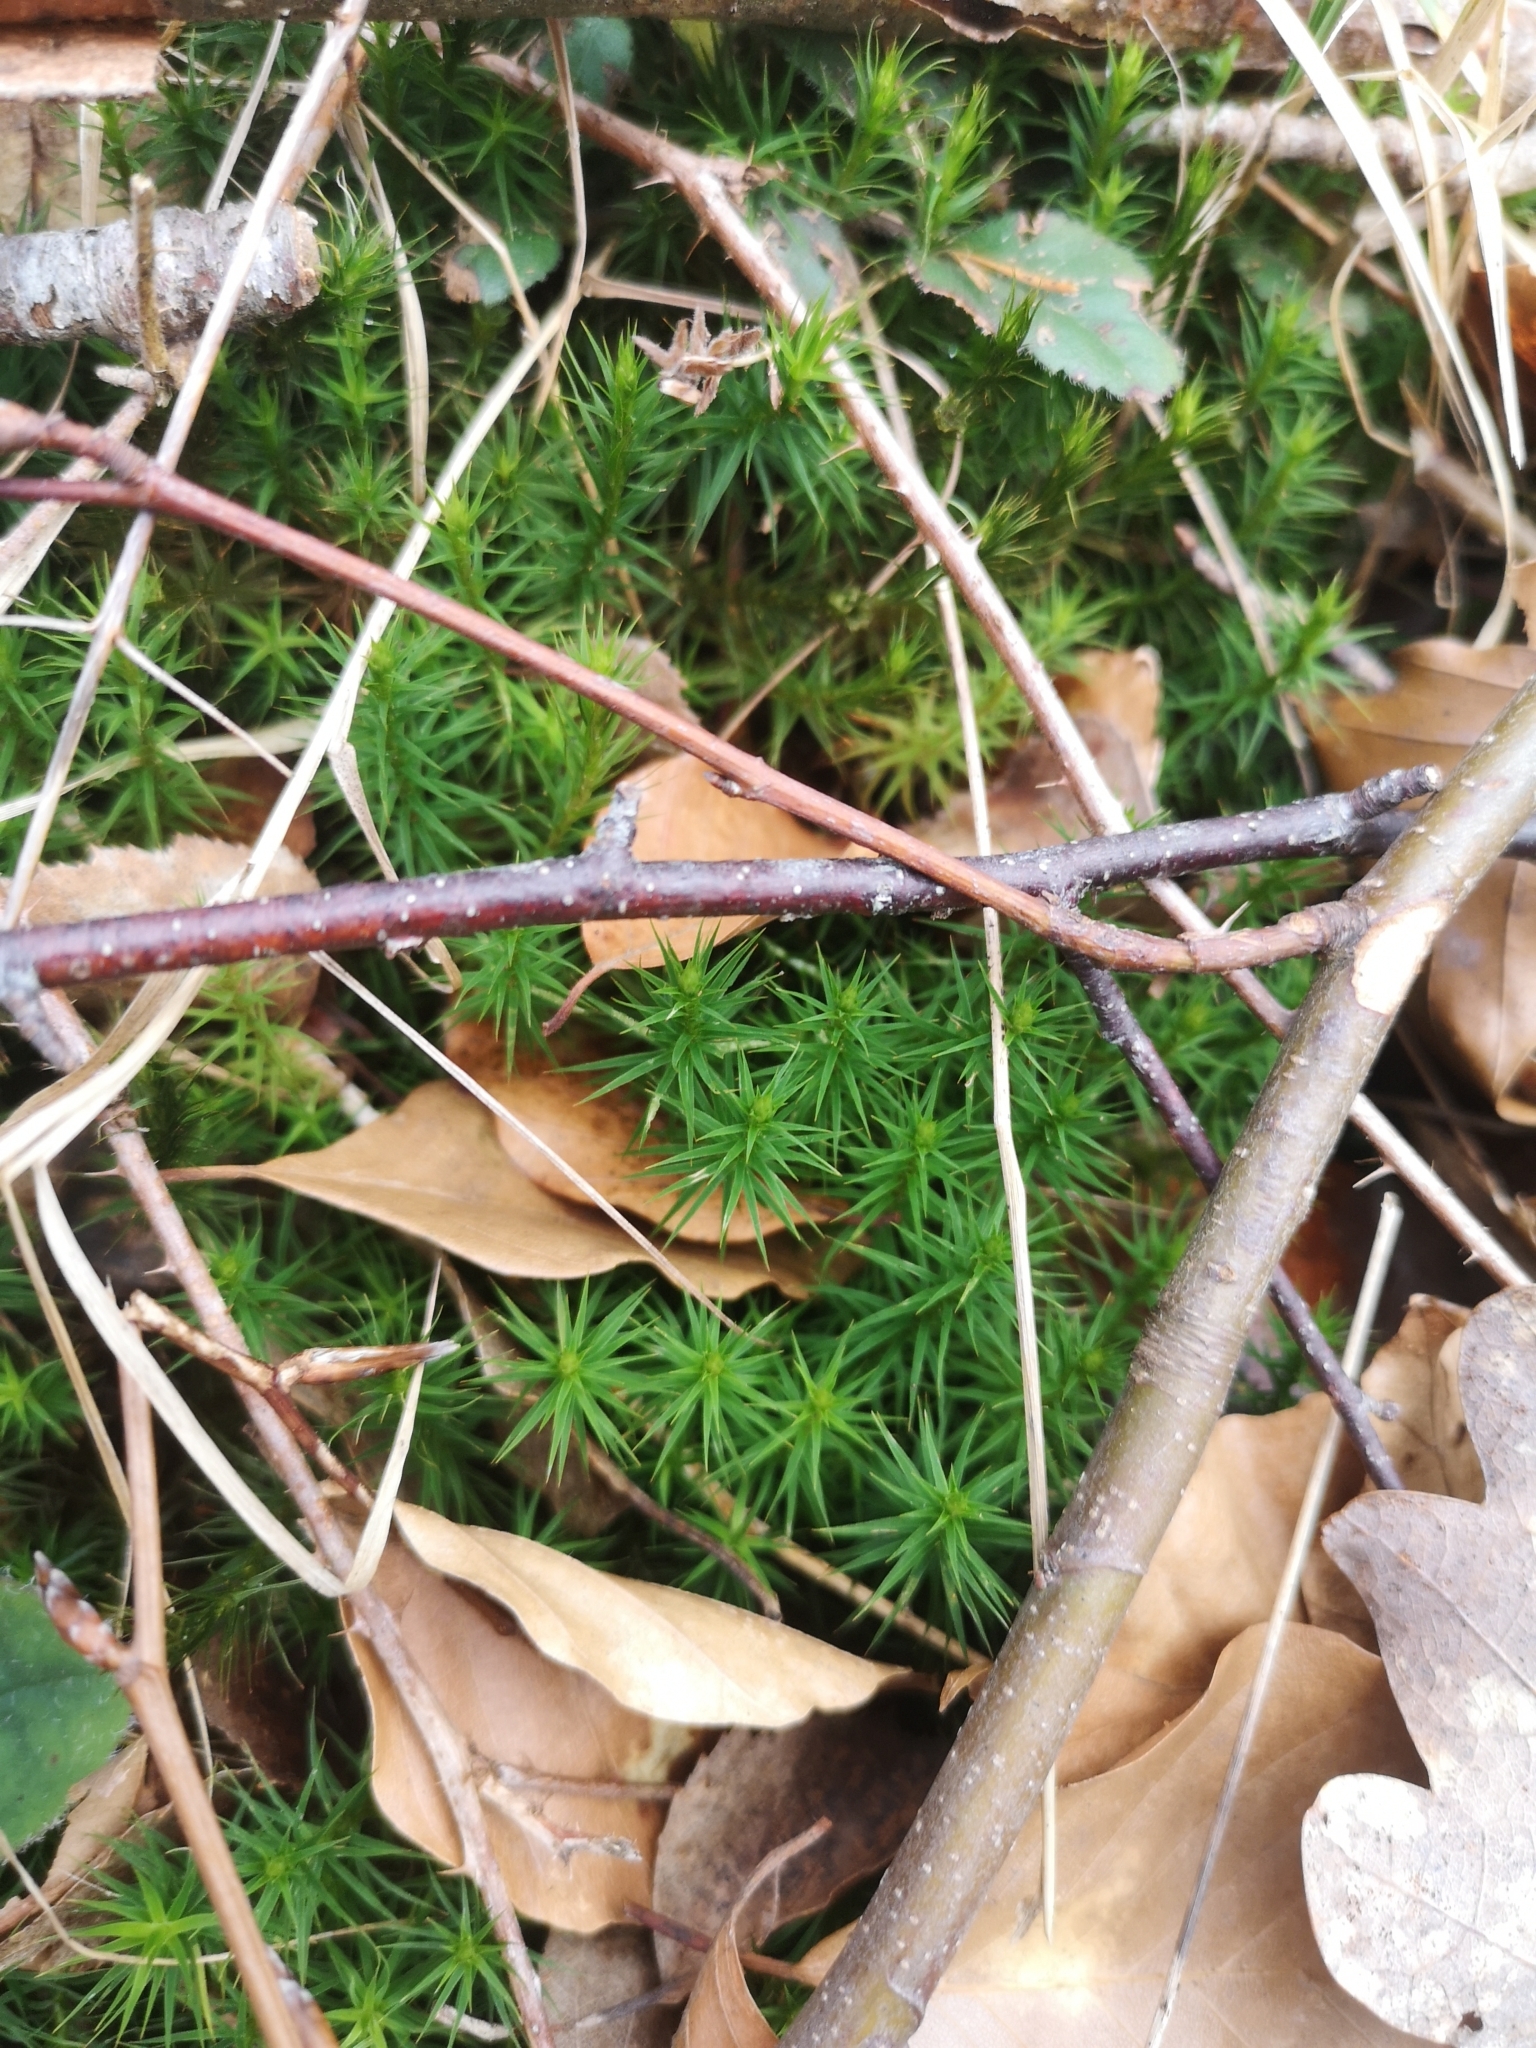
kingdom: Plantae
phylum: Bryophyta
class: Polytrichopsida
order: Polytrichales
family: Polytrichaceae
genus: Polytrichum
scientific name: Polytrichum formosum
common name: Bank haircap moss
